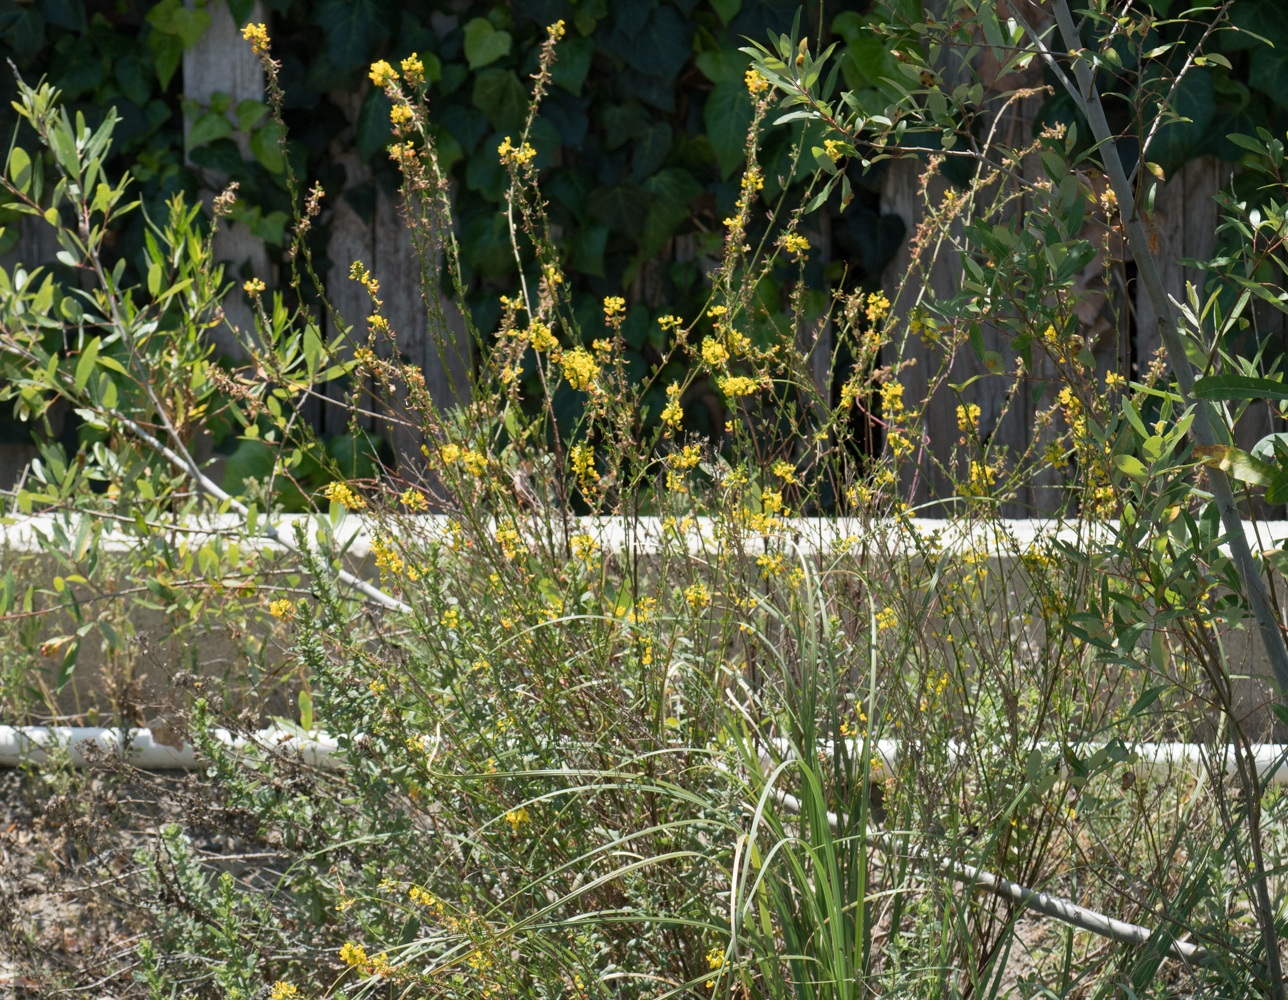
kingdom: Plantae
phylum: Tracheophyta
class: Magnoliopsida
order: Fabales
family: Fabaceae
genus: Acmispon
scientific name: Acmispon glaber
